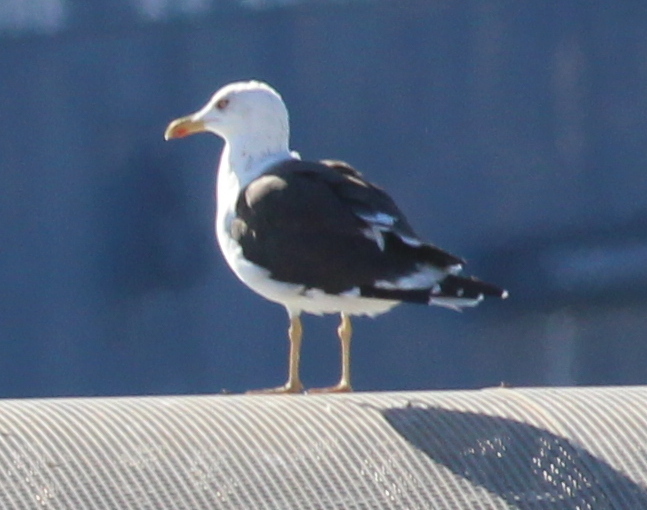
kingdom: Animalia
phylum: Chordata
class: Aves
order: Charadriiformes
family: Laridae
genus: Larus
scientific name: Larus fuscus
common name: Lesser black-backed gull
